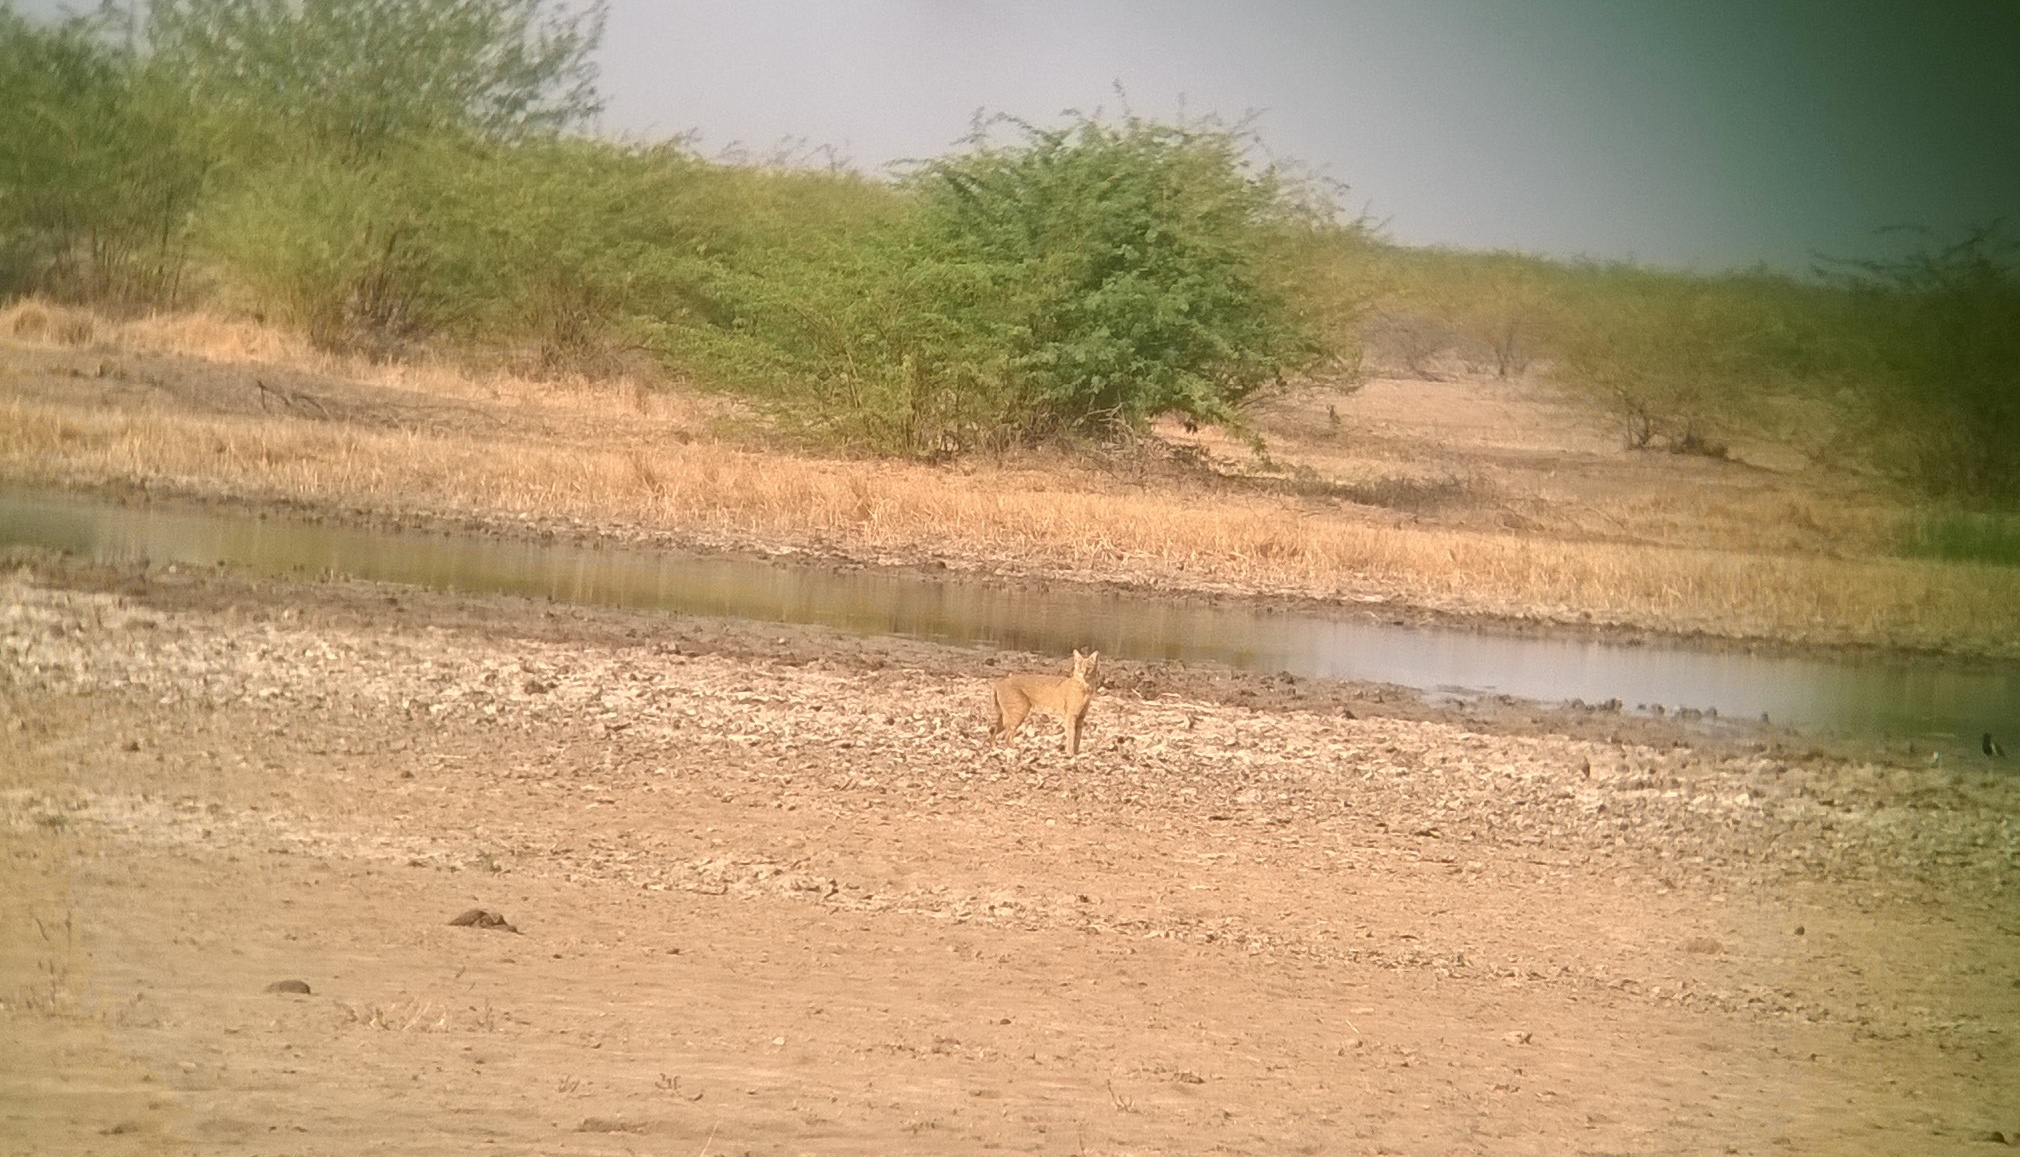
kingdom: Animalia
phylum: Chordata
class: Mammalia
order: Carnivora
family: Felidae
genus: Felis
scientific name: Felis chaus
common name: Jungle cat
